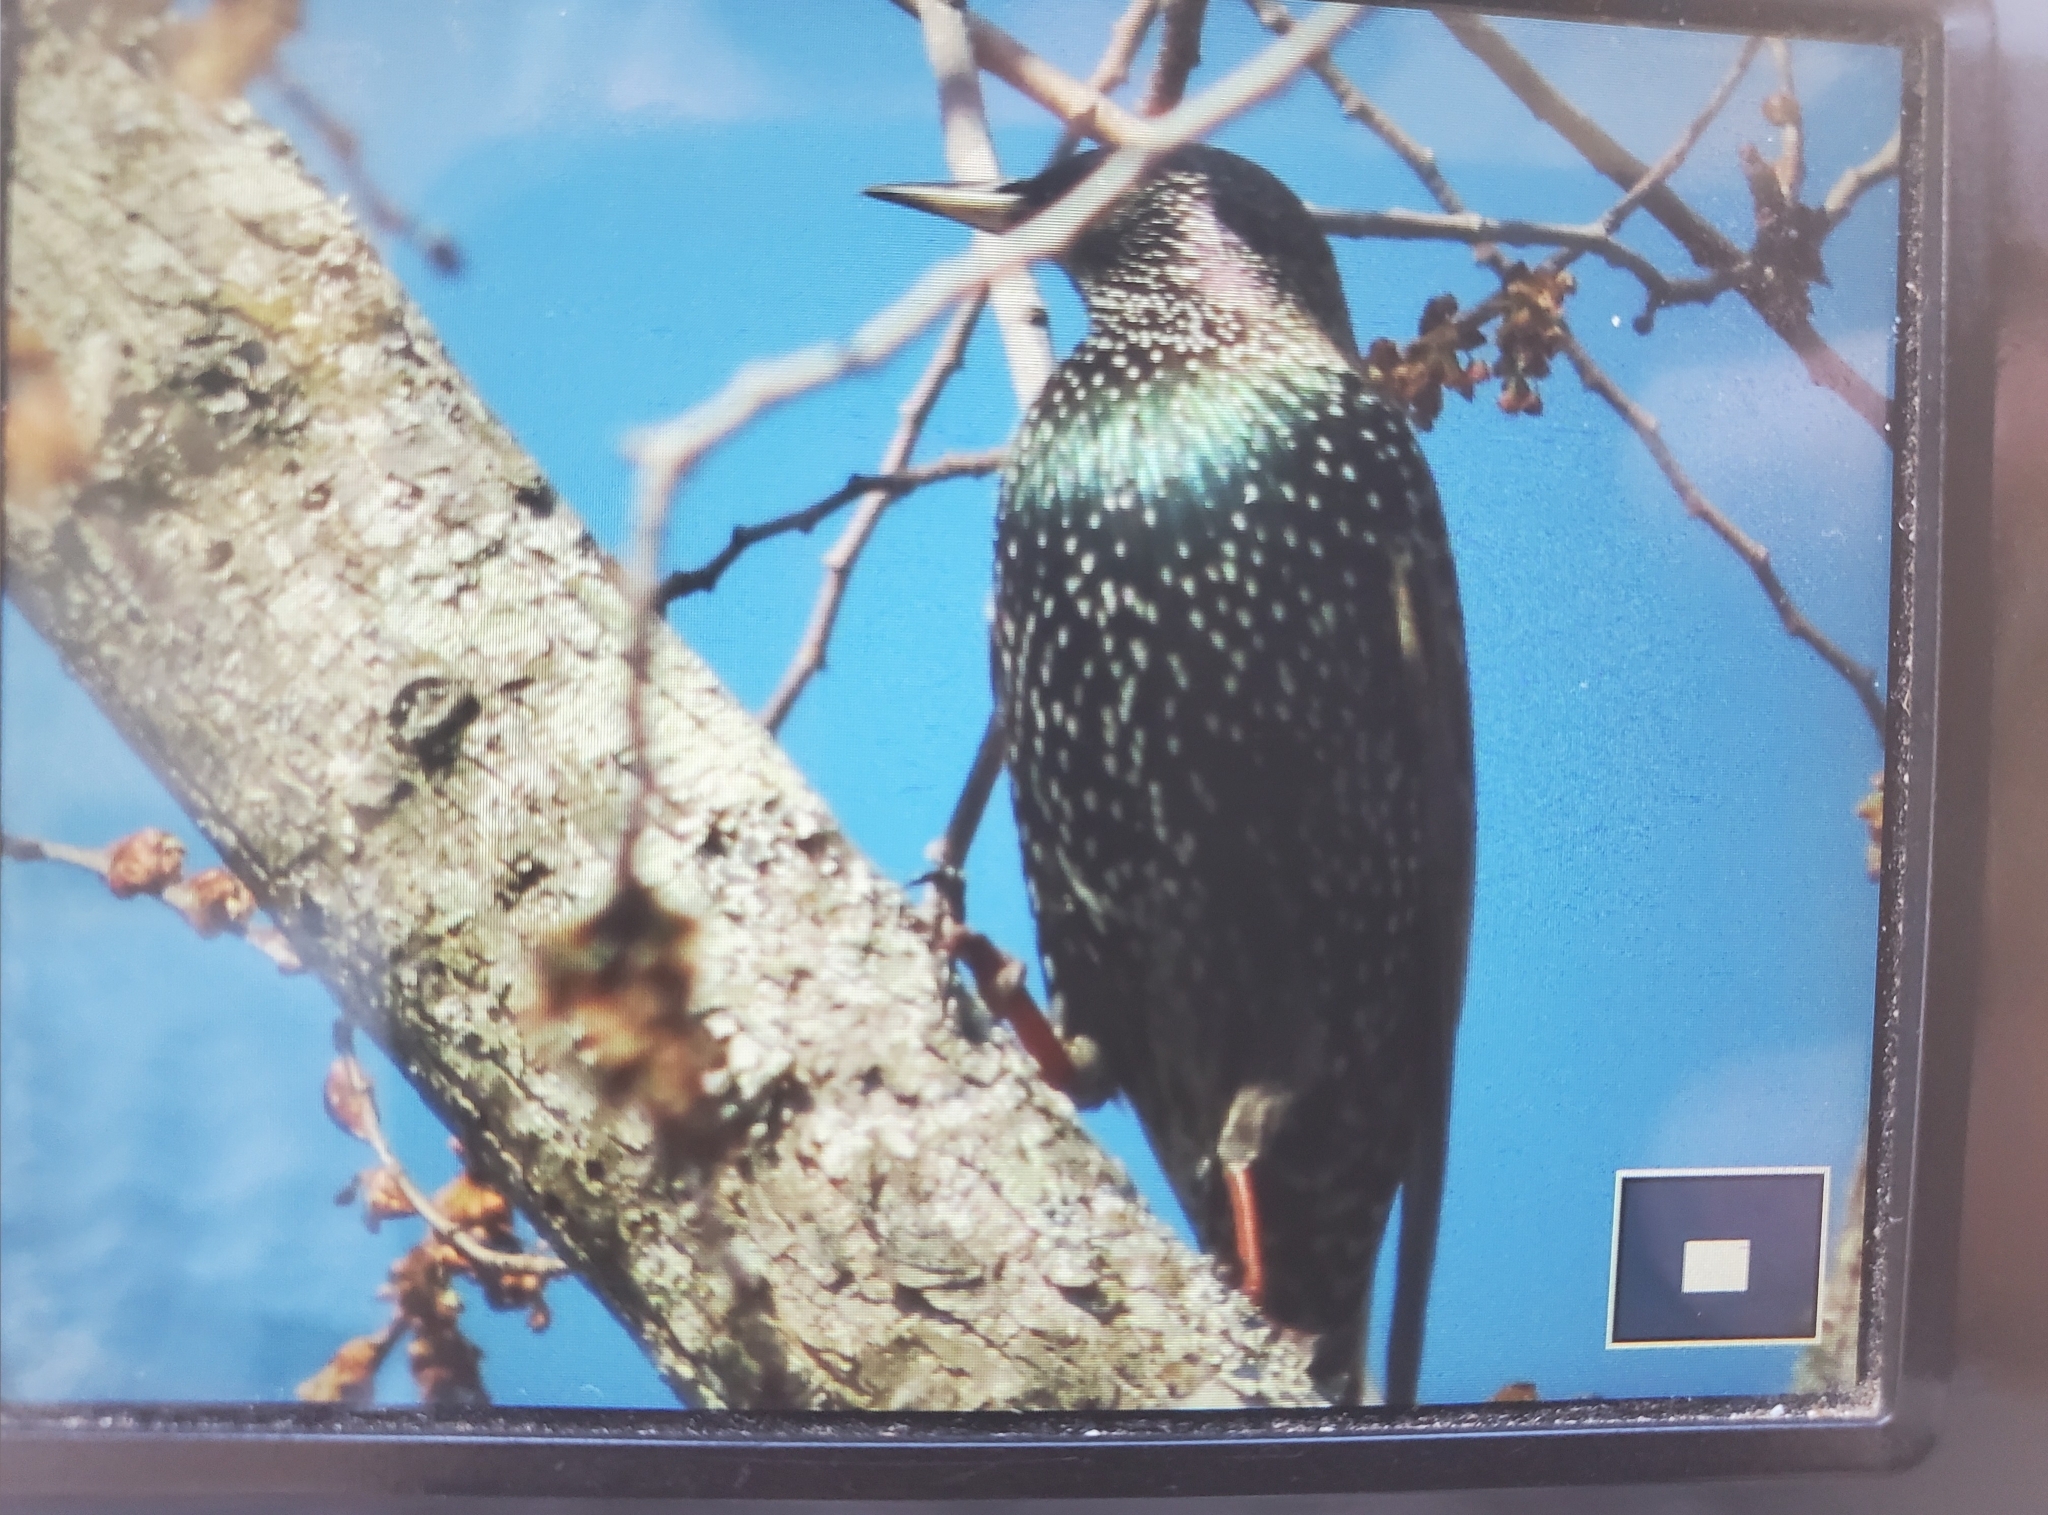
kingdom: Animalia
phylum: Chordata
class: Aves
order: Passeriformes
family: Sturnidae
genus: Sturnus
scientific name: Sturnus vulgaris
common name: Common starling
